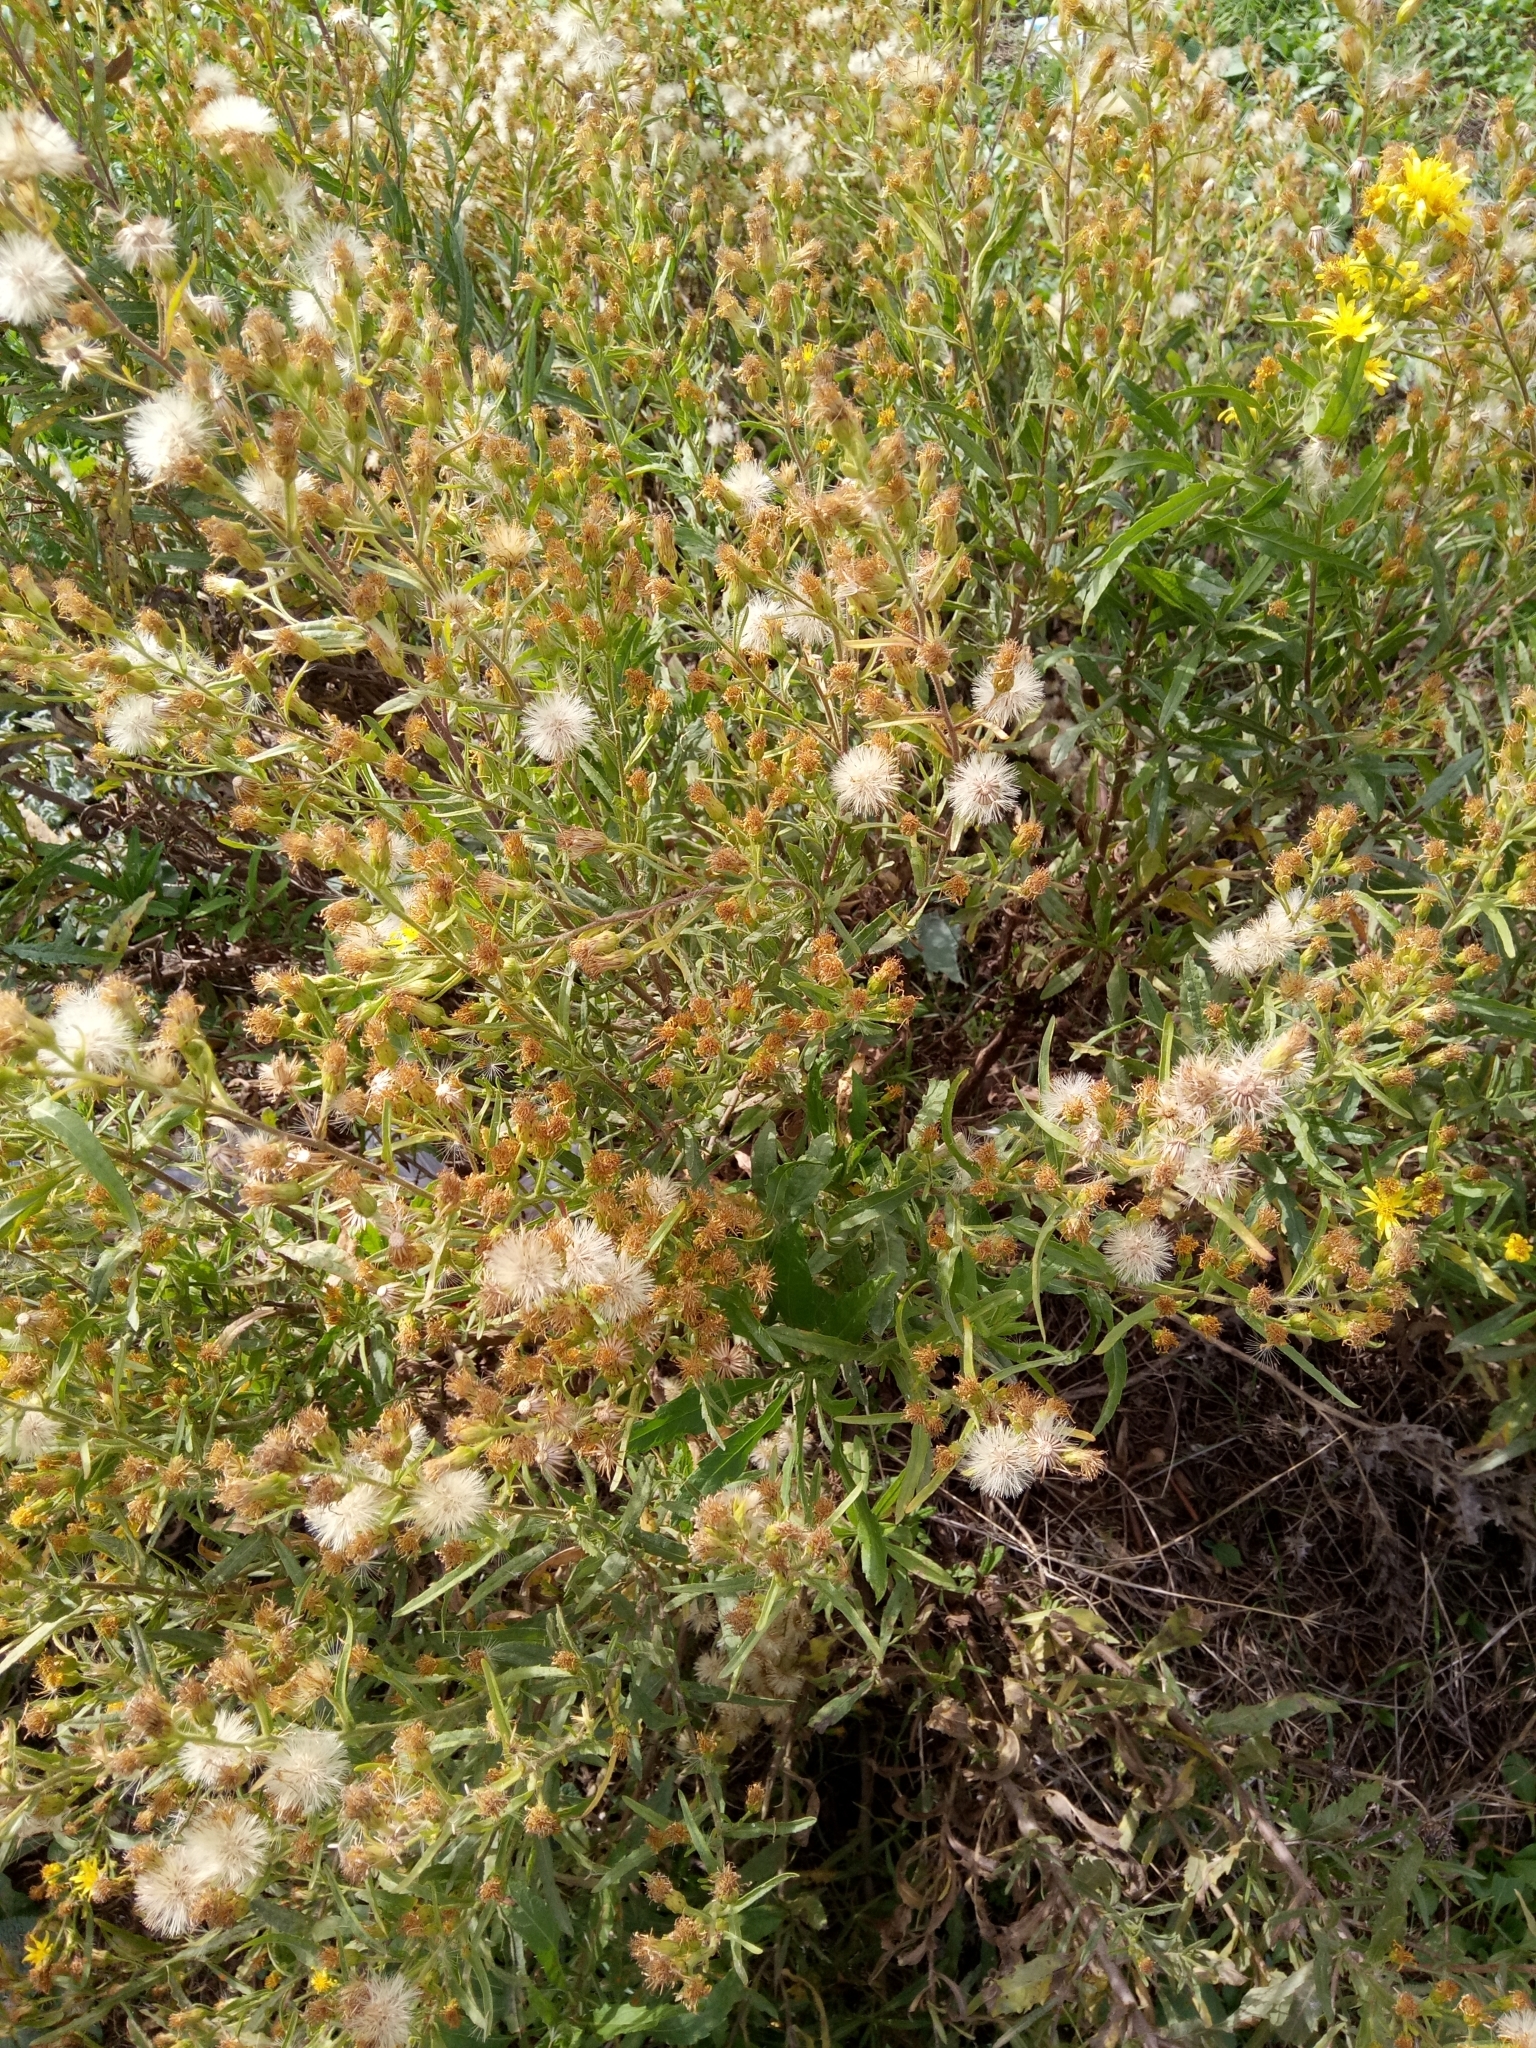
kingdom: Plantae
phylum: Tracheophyta
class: Magnoliopsida
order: Asterales
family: Asteraceae
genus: Dittrichia
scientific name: Dittrichia viscosa
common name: Woody fleabane
